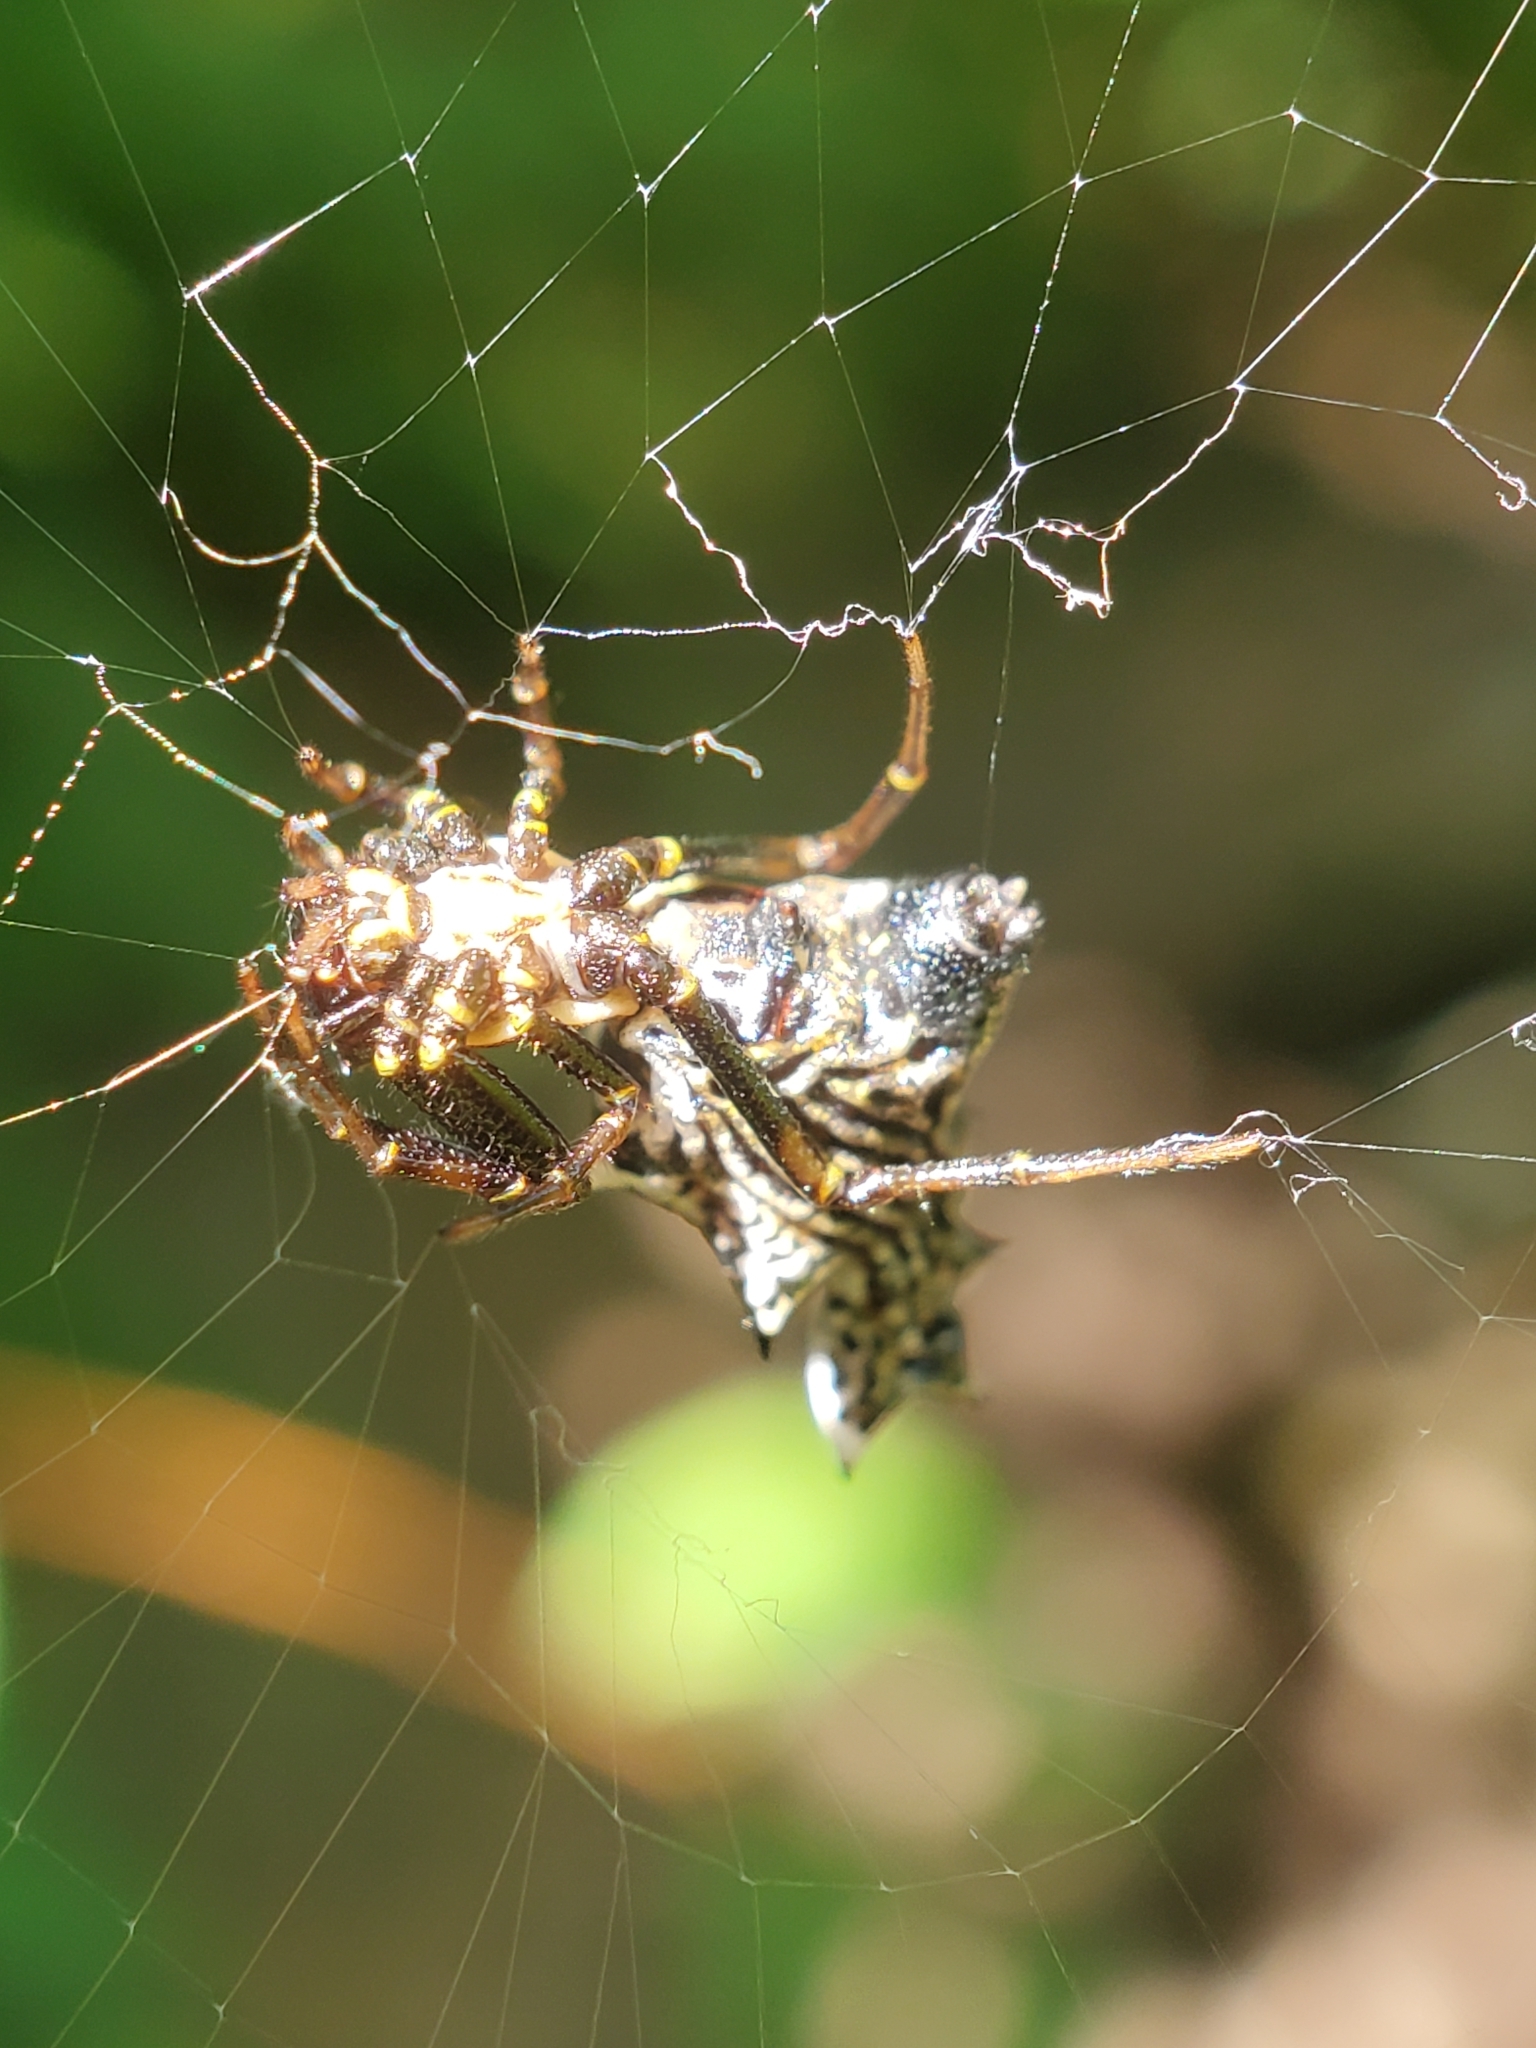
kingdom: Animalia
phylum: Arthropoda
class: Arachnida
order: Araneae
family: Araneidae
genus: Micrathena
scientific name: Micrathena gracilis
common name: Orb weavers
